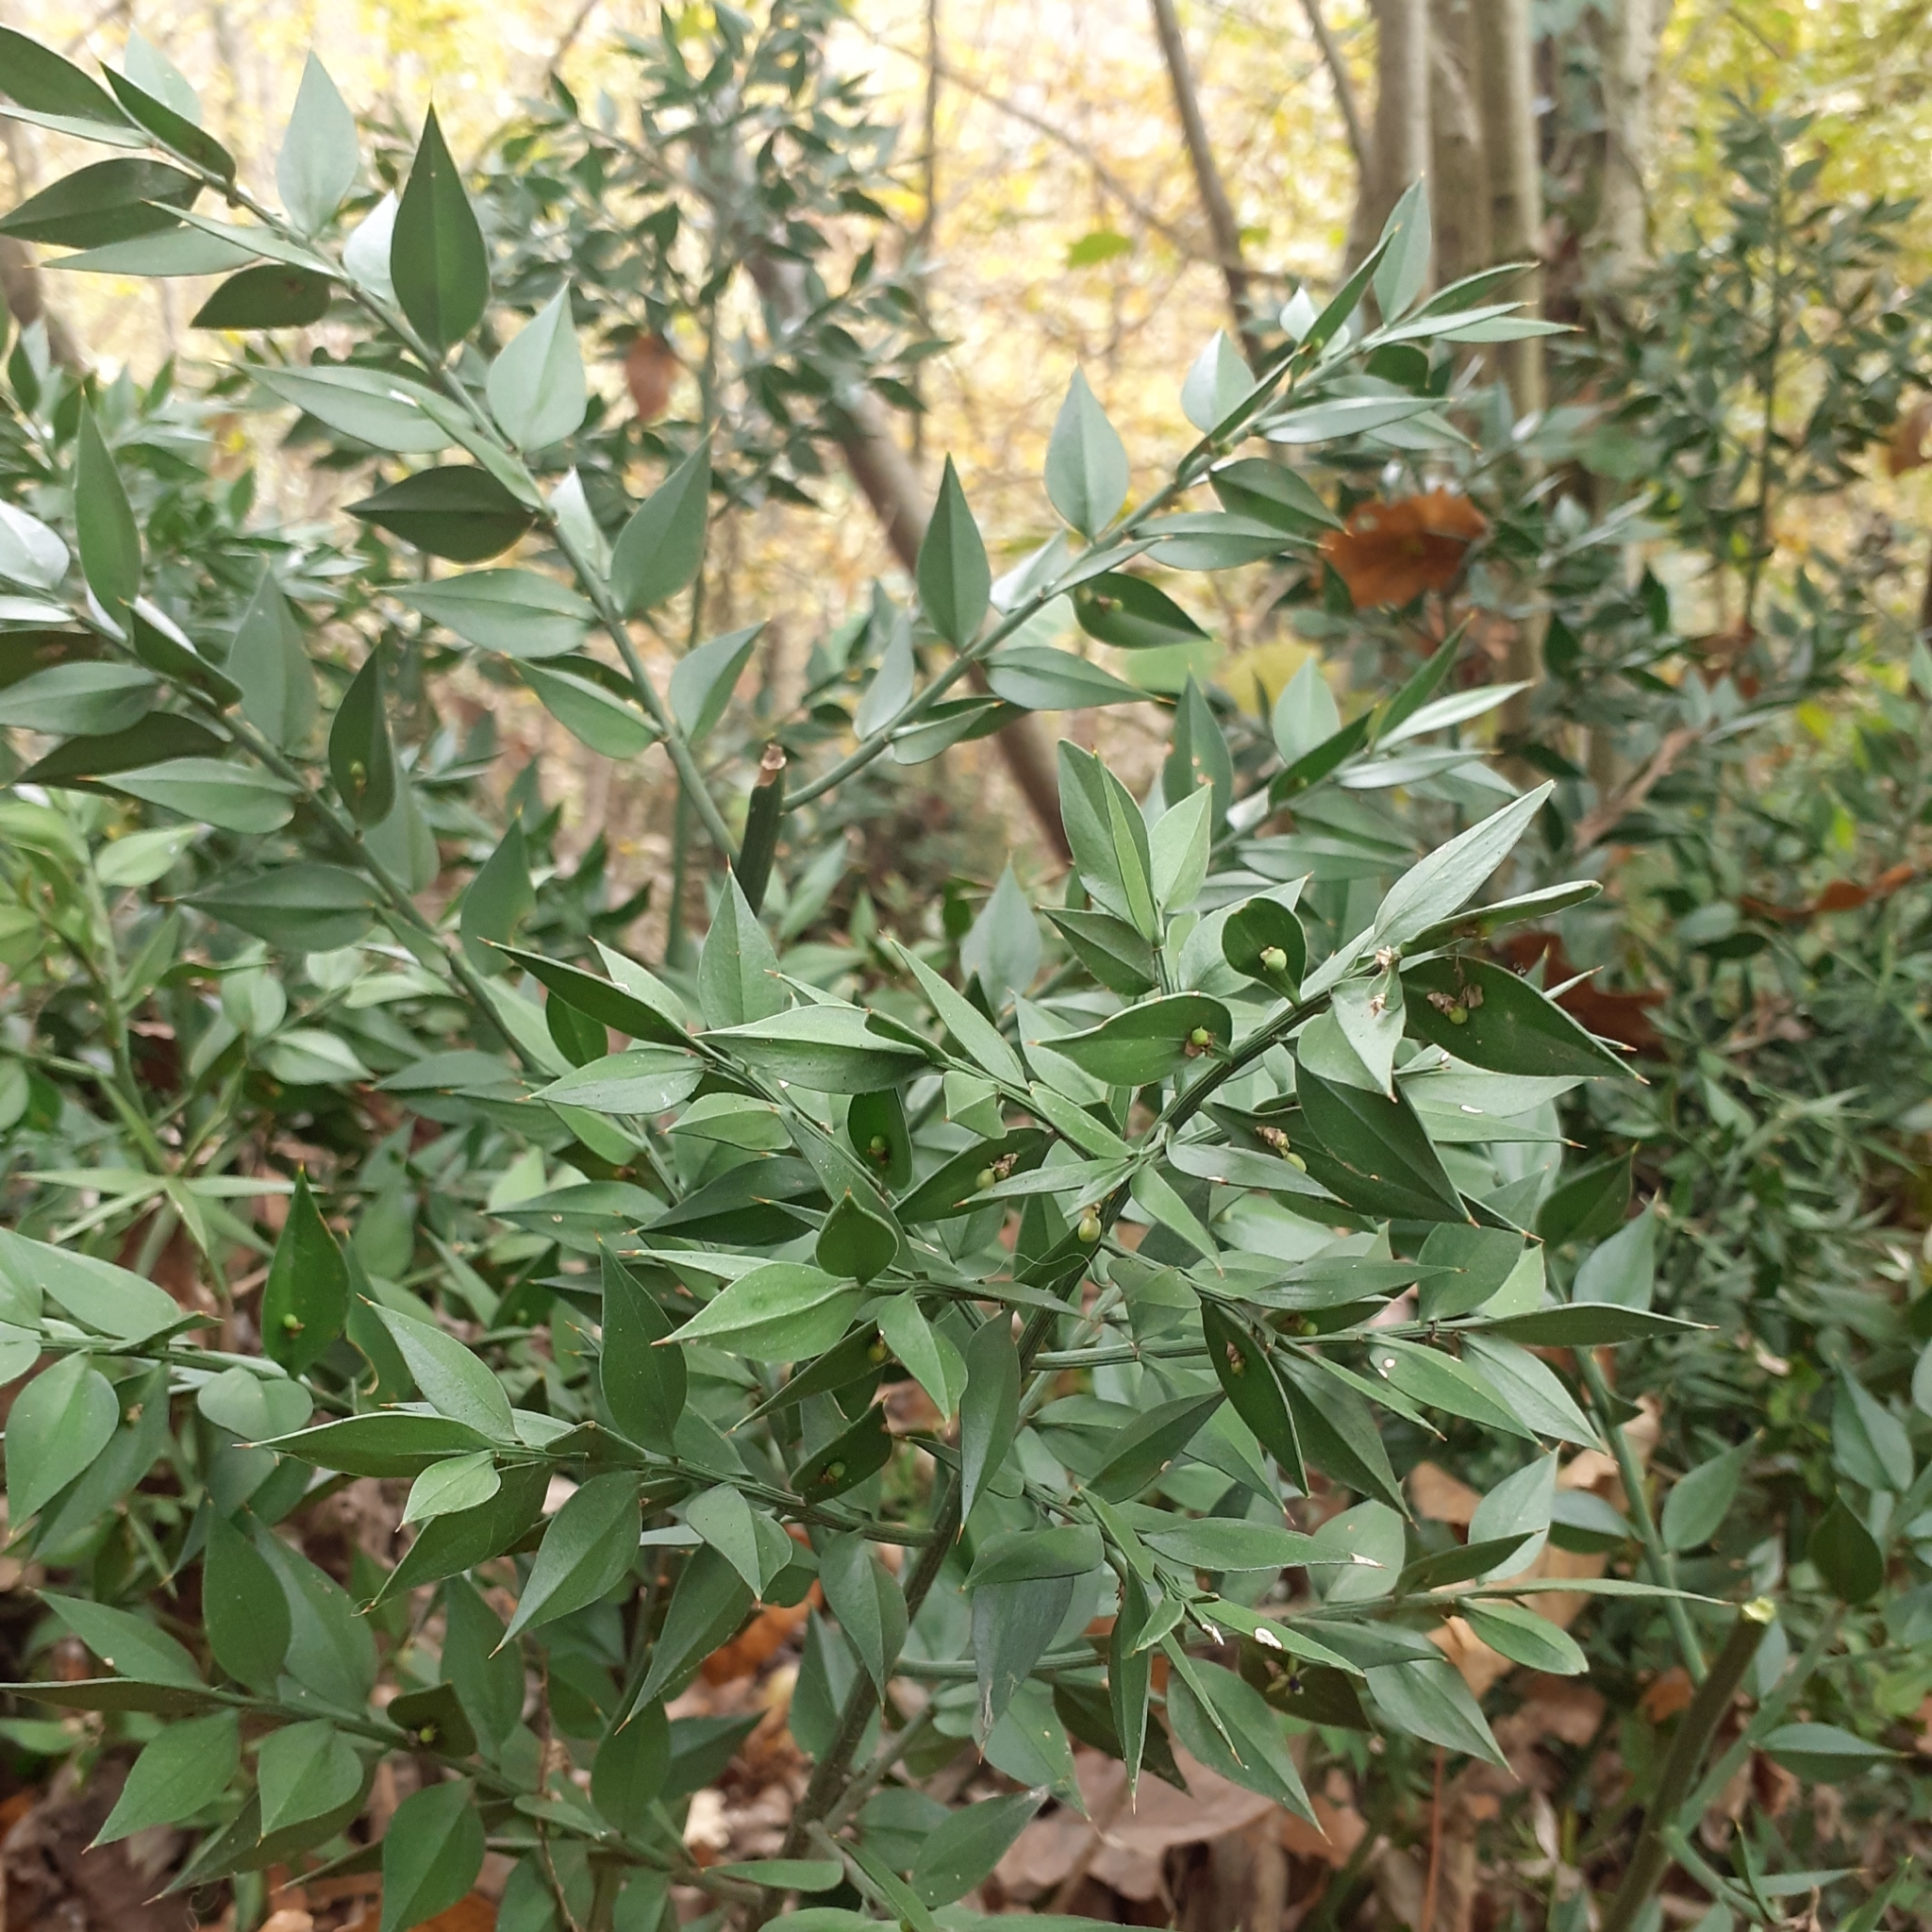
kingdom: Plantae
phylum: Tracheophyta
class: Liliopsida
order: Asparagales
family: Asparagaceae
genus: Ruscus
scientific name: Ruscus aculeatus
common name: Butcher's-broom
